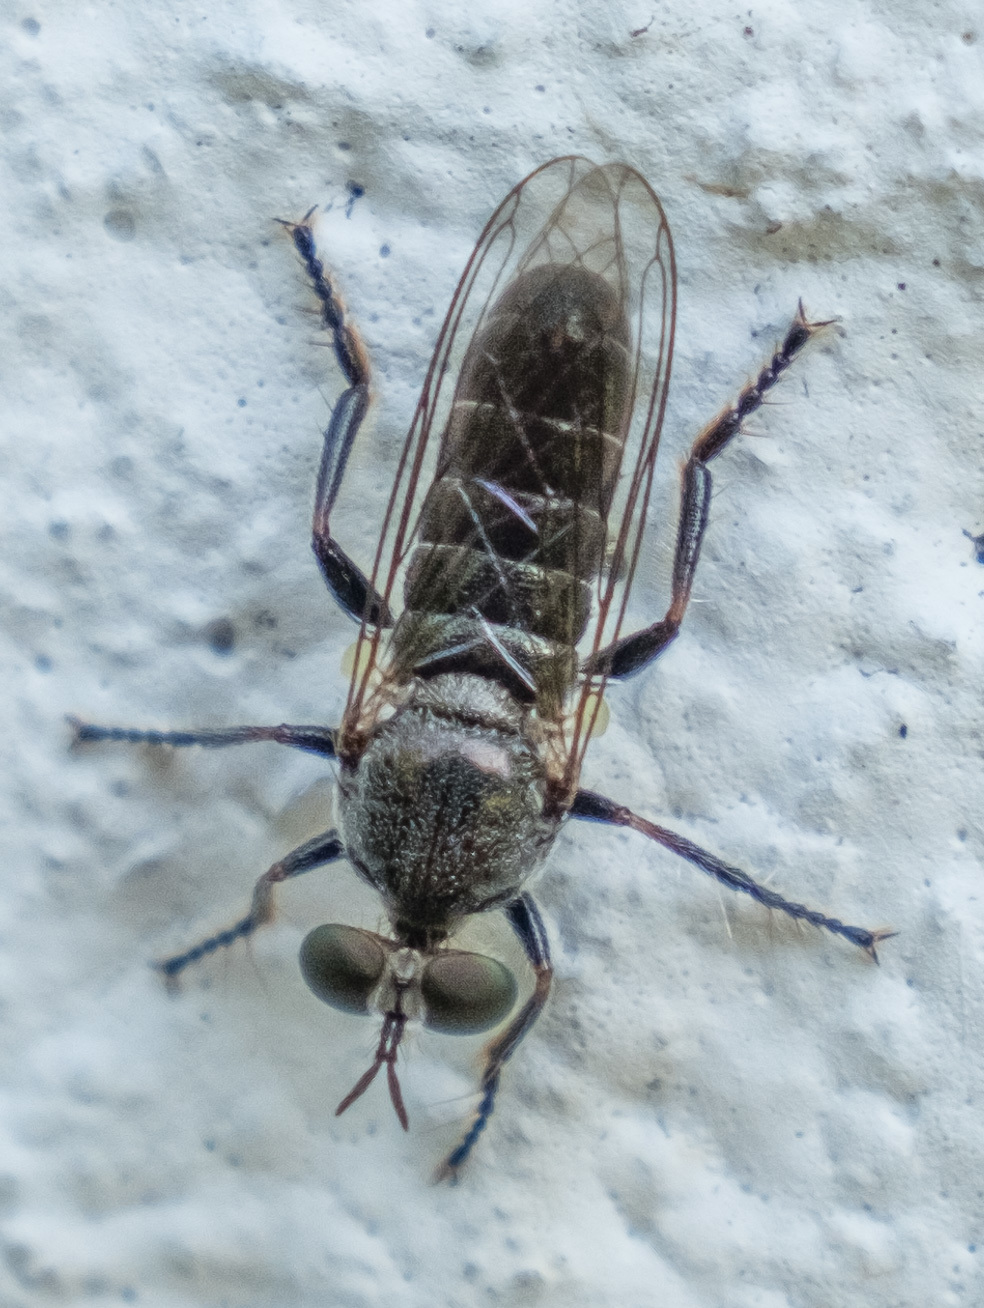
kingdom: Animalia
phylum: Arthropoda
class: Insecta
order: Diptera
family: Asilidae
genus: Atomosia
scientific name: Atomosia puella
